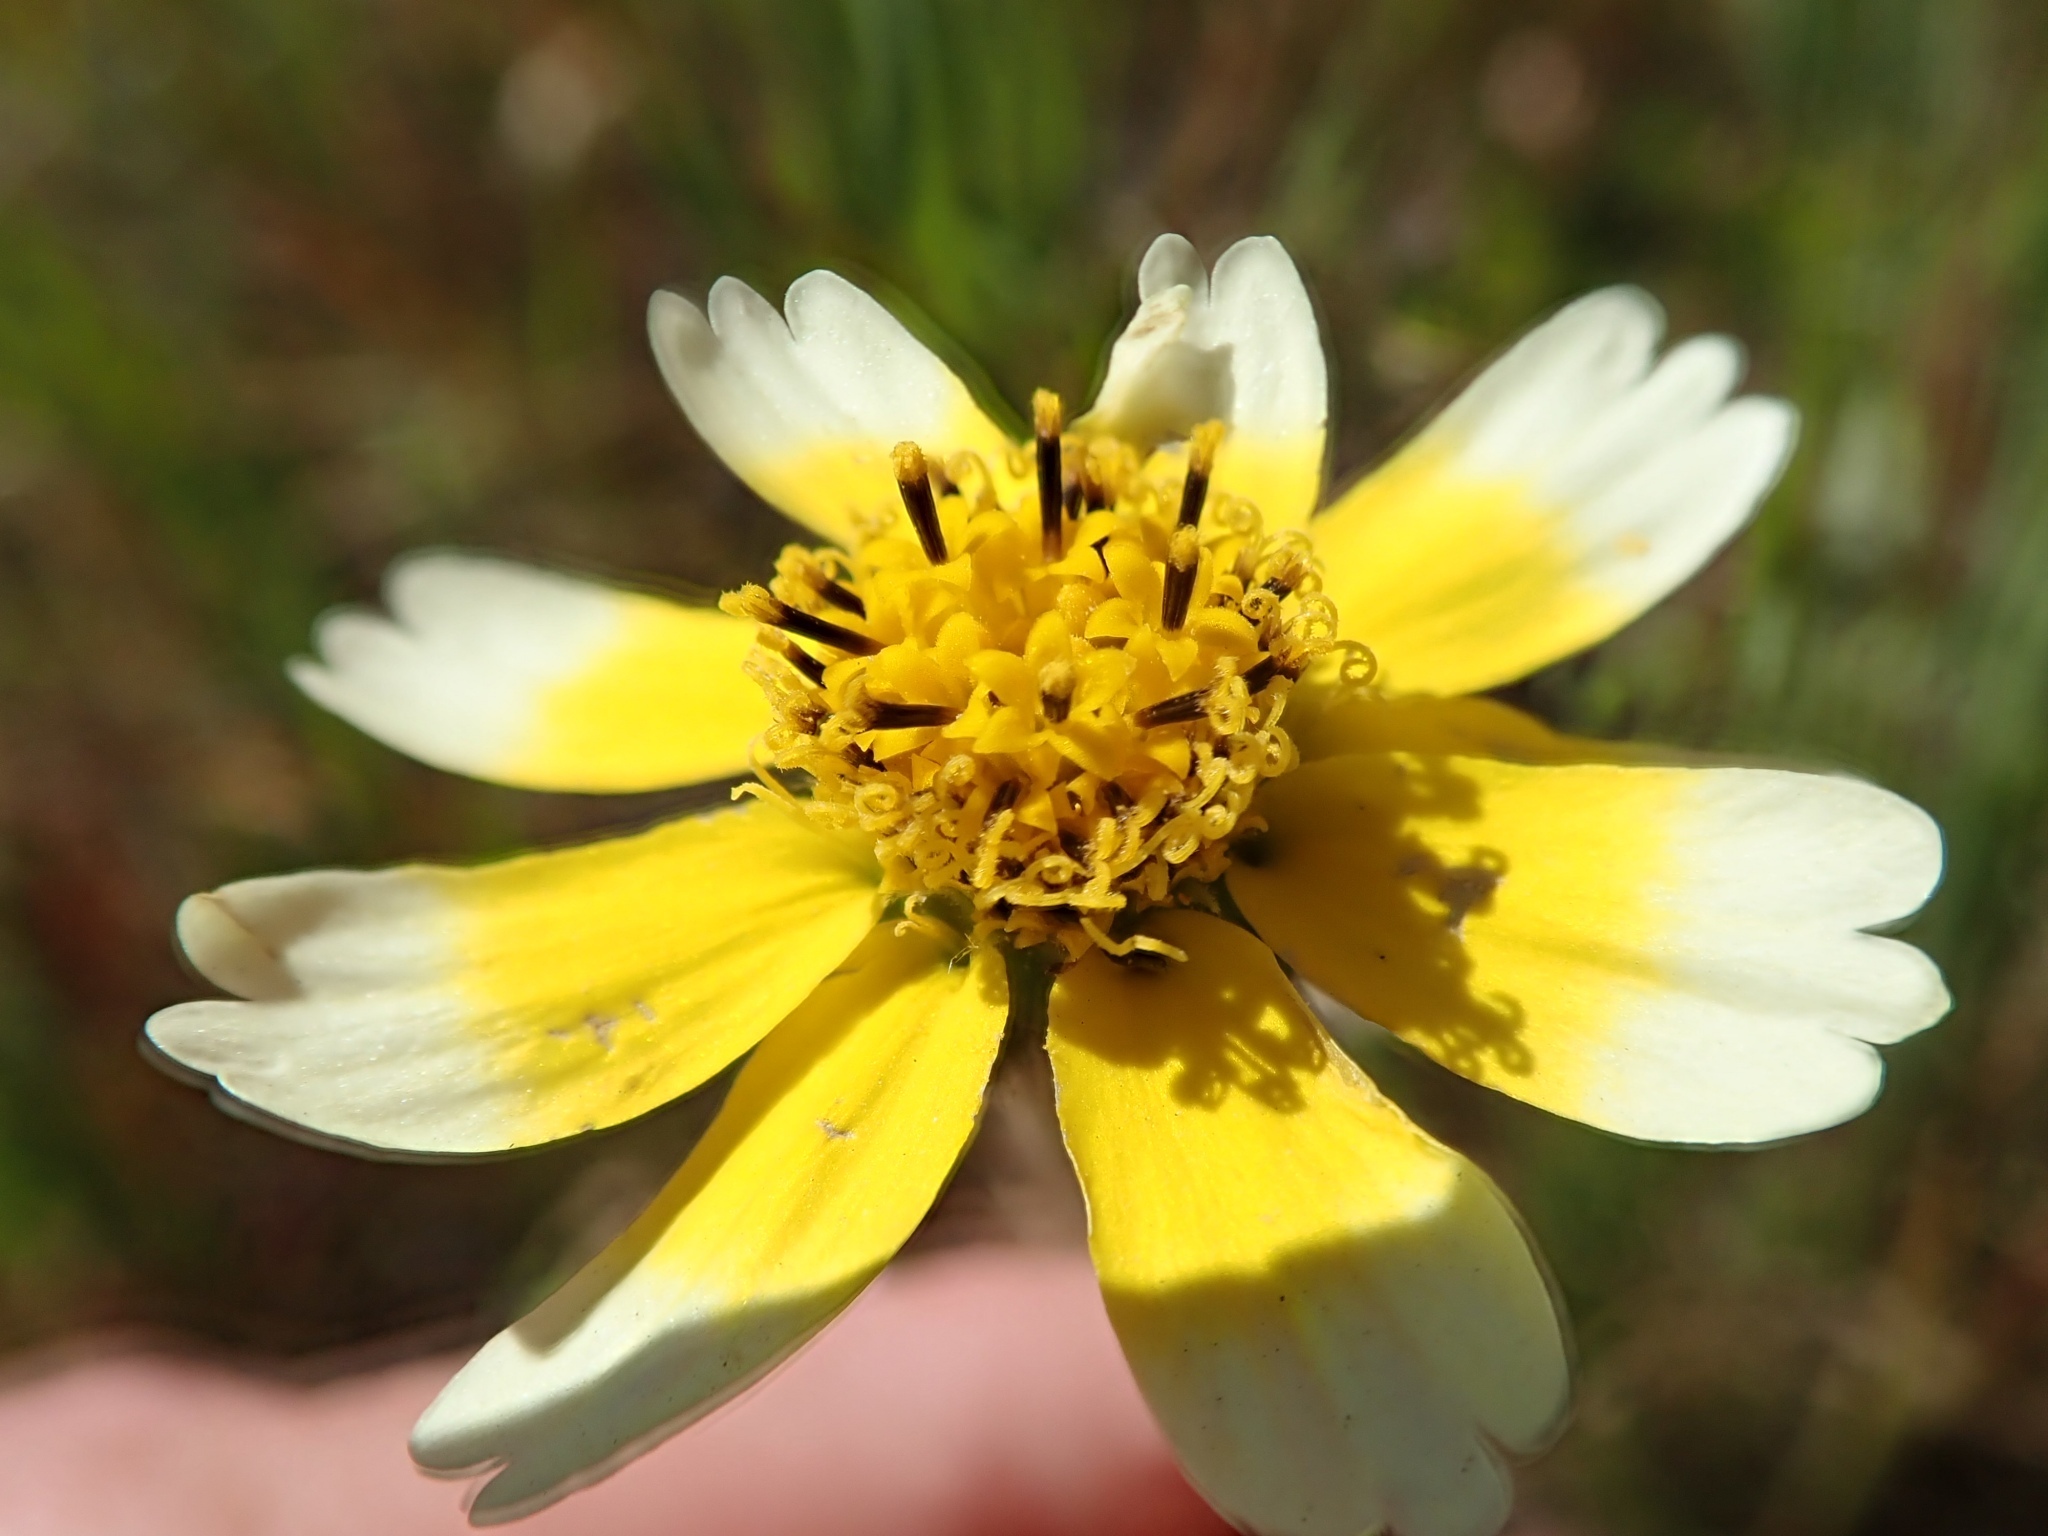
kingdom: Plantae
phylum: Tracheophyta
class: Magnoliopsida
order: Asterales
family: Asteraceae
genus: Layia
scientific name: Layia gaillardioides
